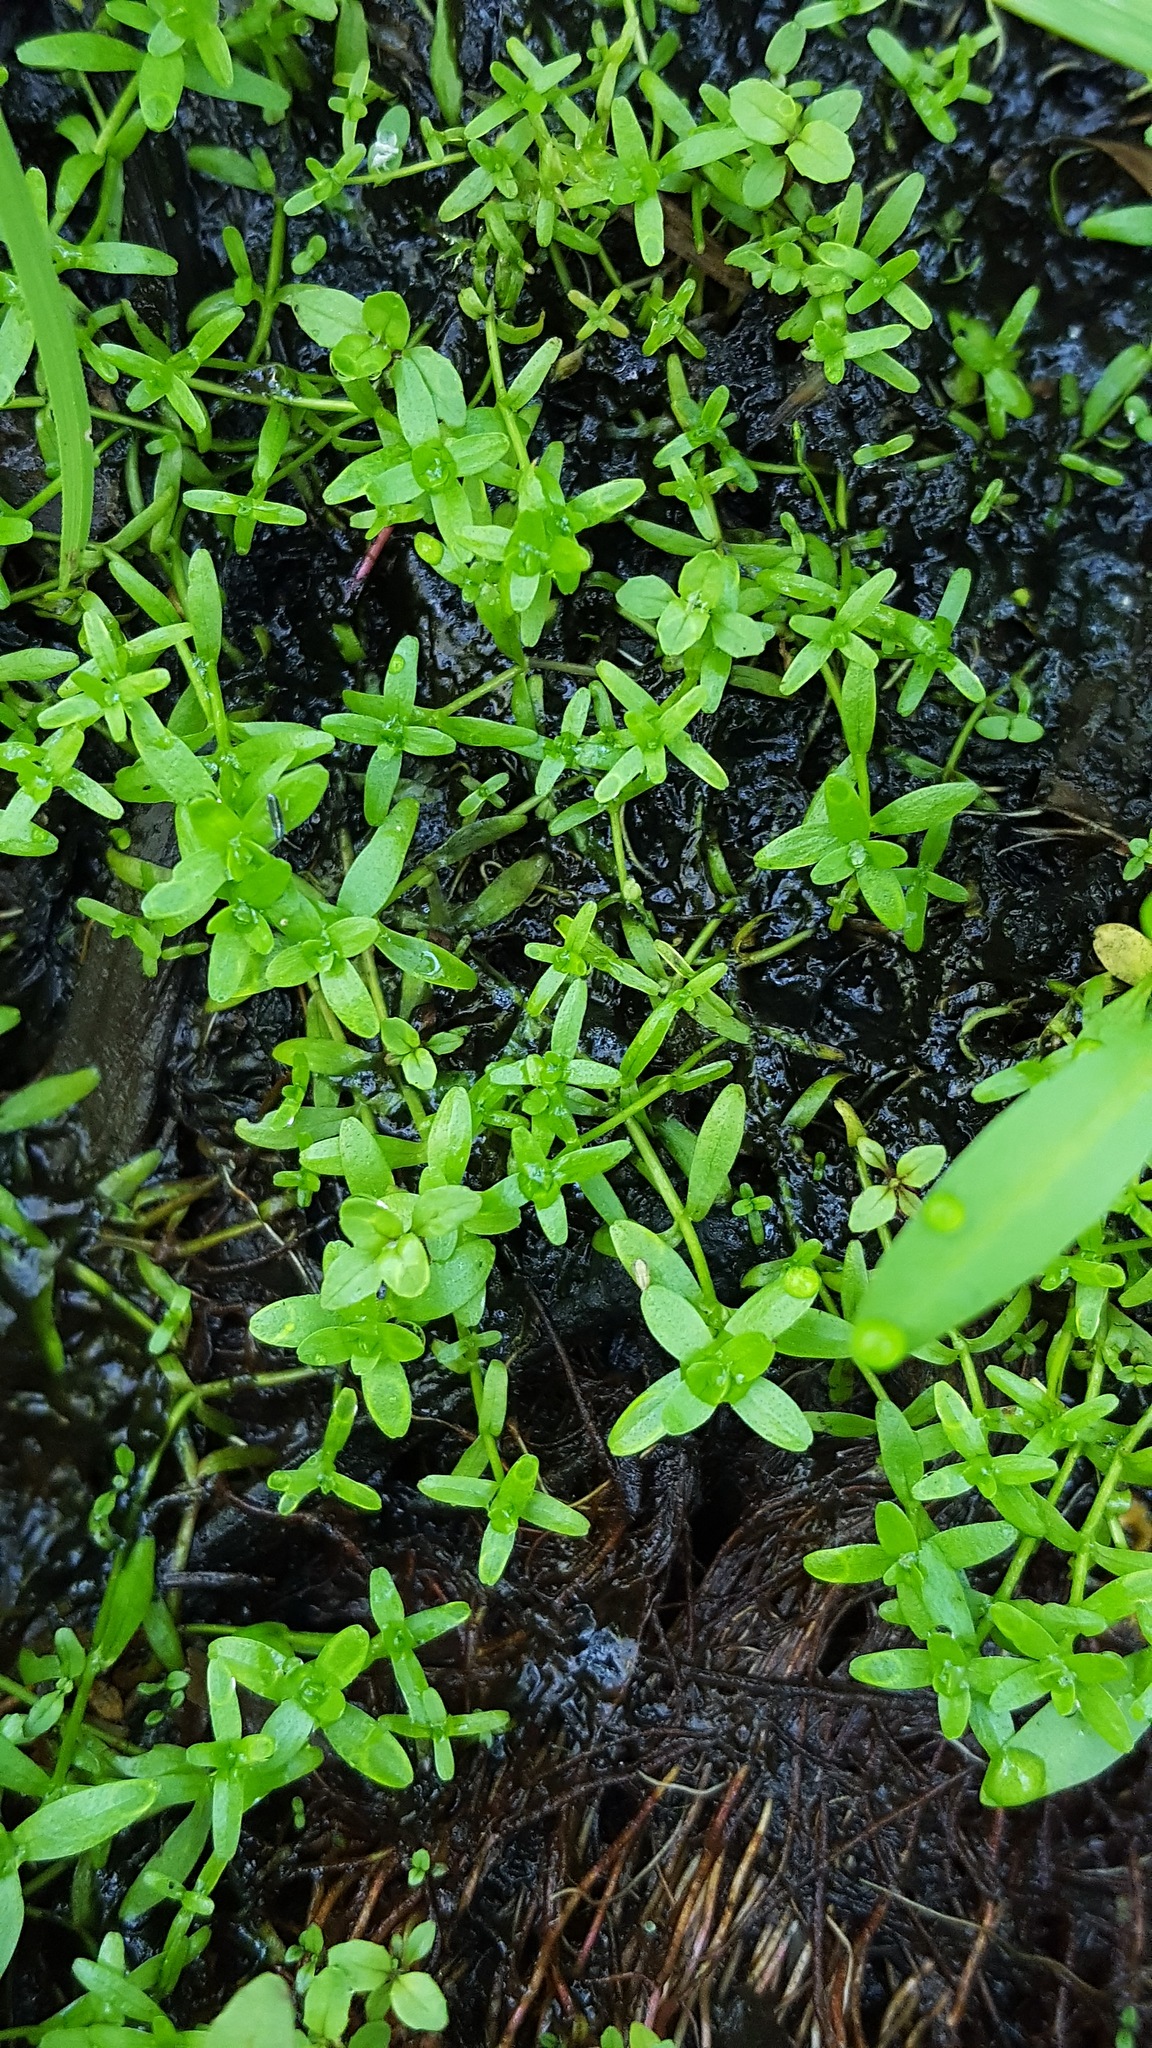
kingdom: Plantae
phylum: Tracheophyta
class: Magnoliopsida
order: Lamiales
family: Plantaginaceae
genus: Callitriche
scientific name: Callitriche palustris
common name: Spring water-starwort
